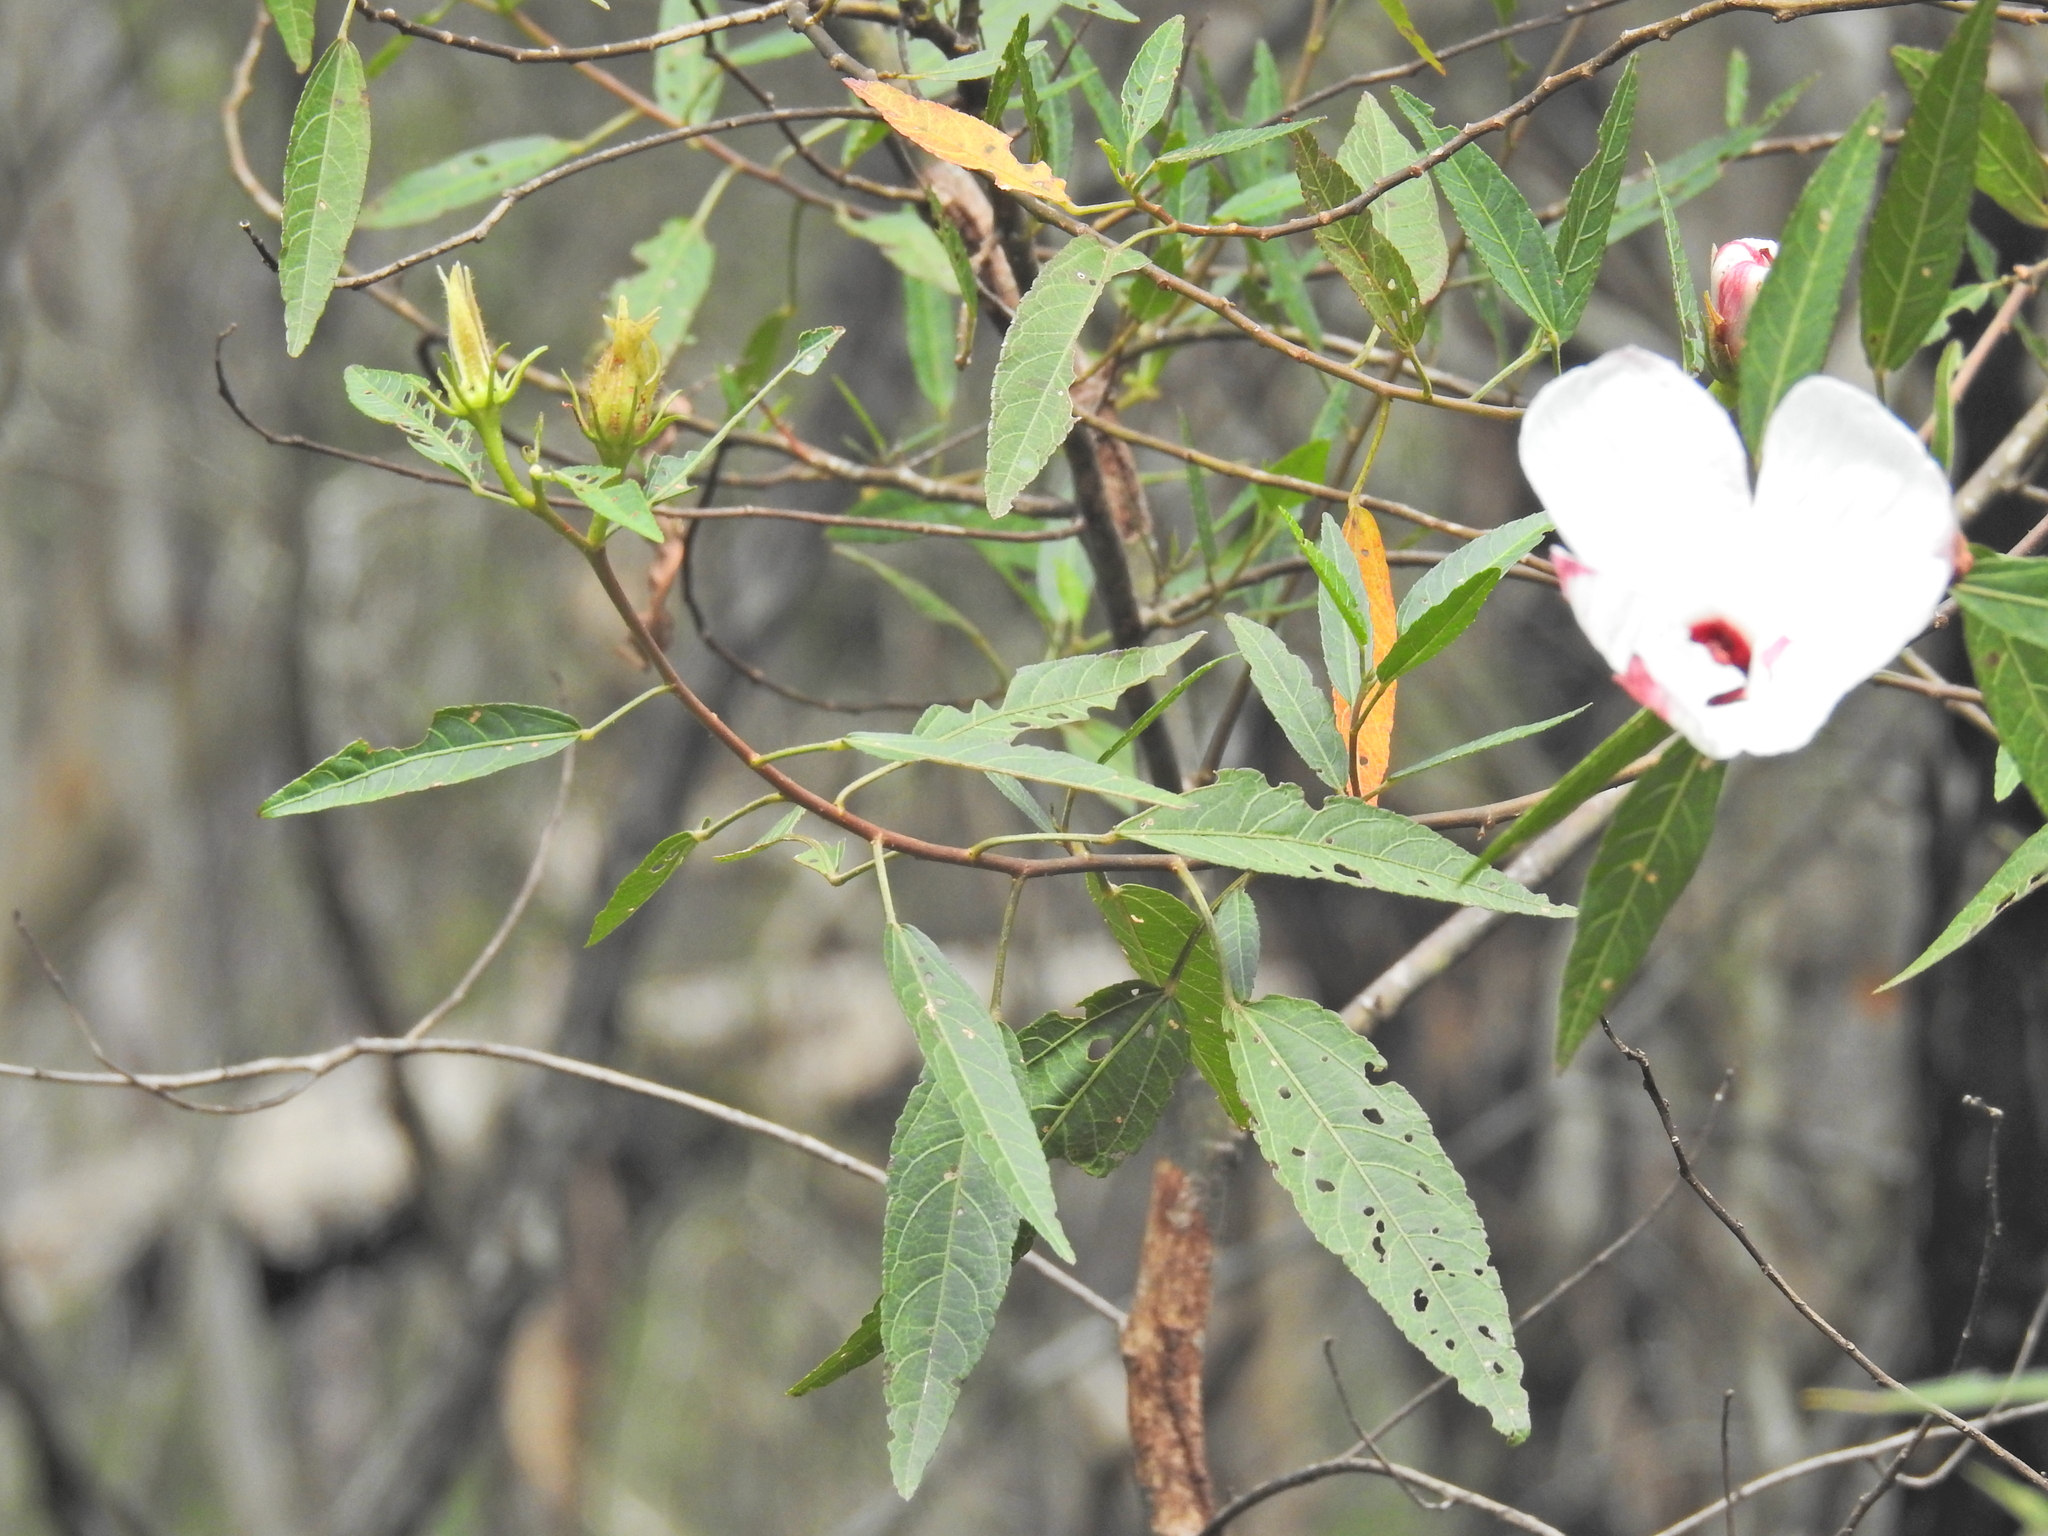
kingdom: Plantae
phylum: Tracheophyta
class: Magnoliopsida
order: Malvales
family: Malvaceae
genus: Hibiscus
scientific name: Hibiscus heterophyllus
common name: Queensland-sorrel
